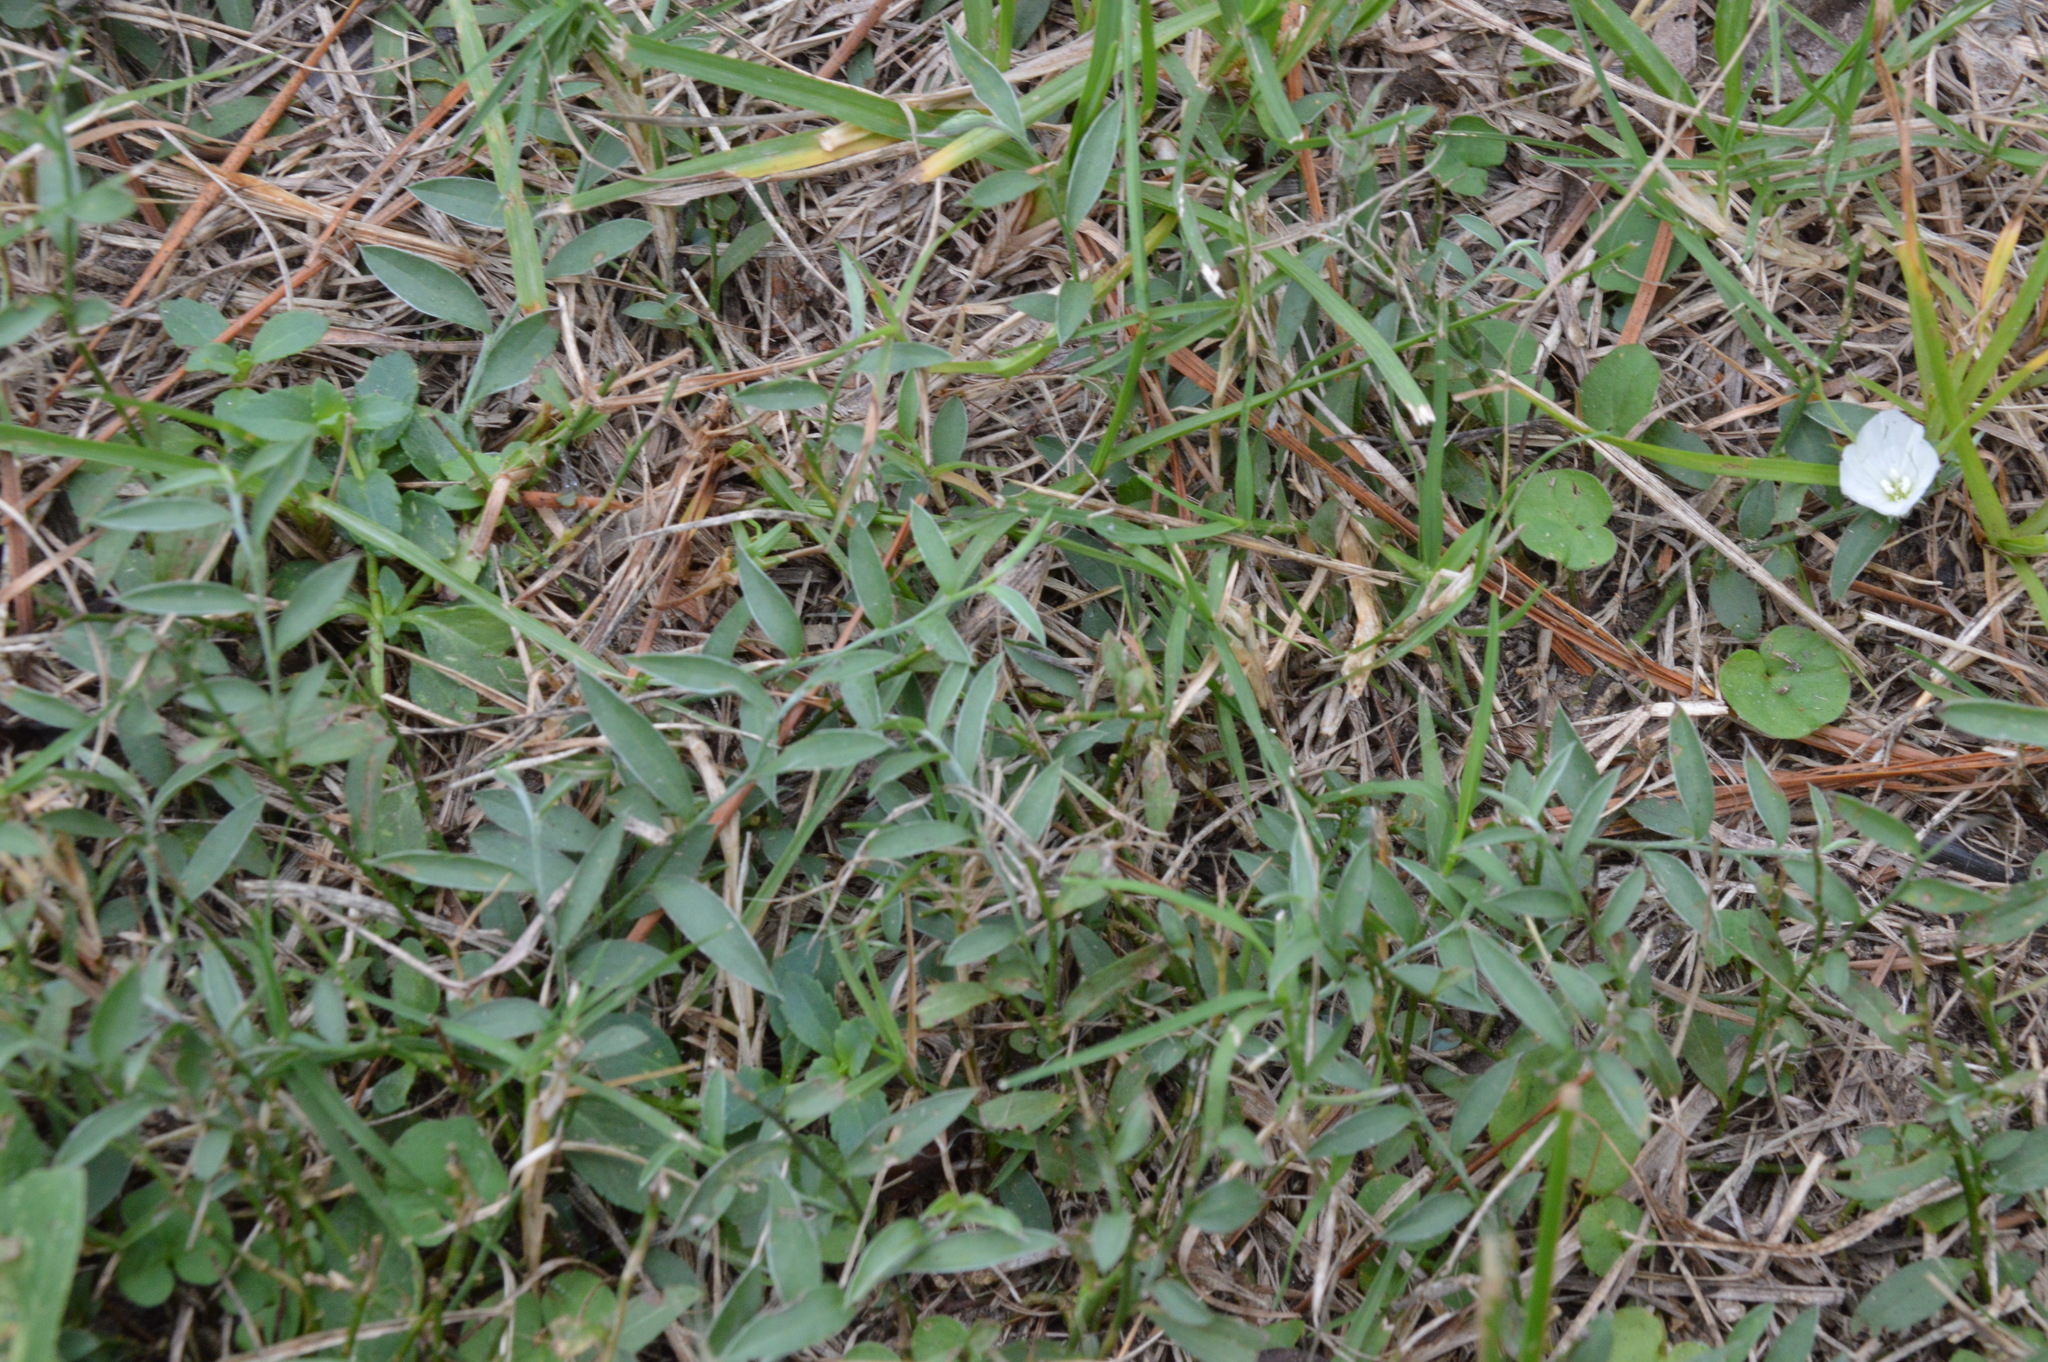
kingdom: Plantae
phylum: Tracheophyta
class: Magnoliopsida
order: Solanales
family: Convolvulaceae
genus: Evolvulus
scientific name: Evolvulus sericeus
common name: Blue dots
